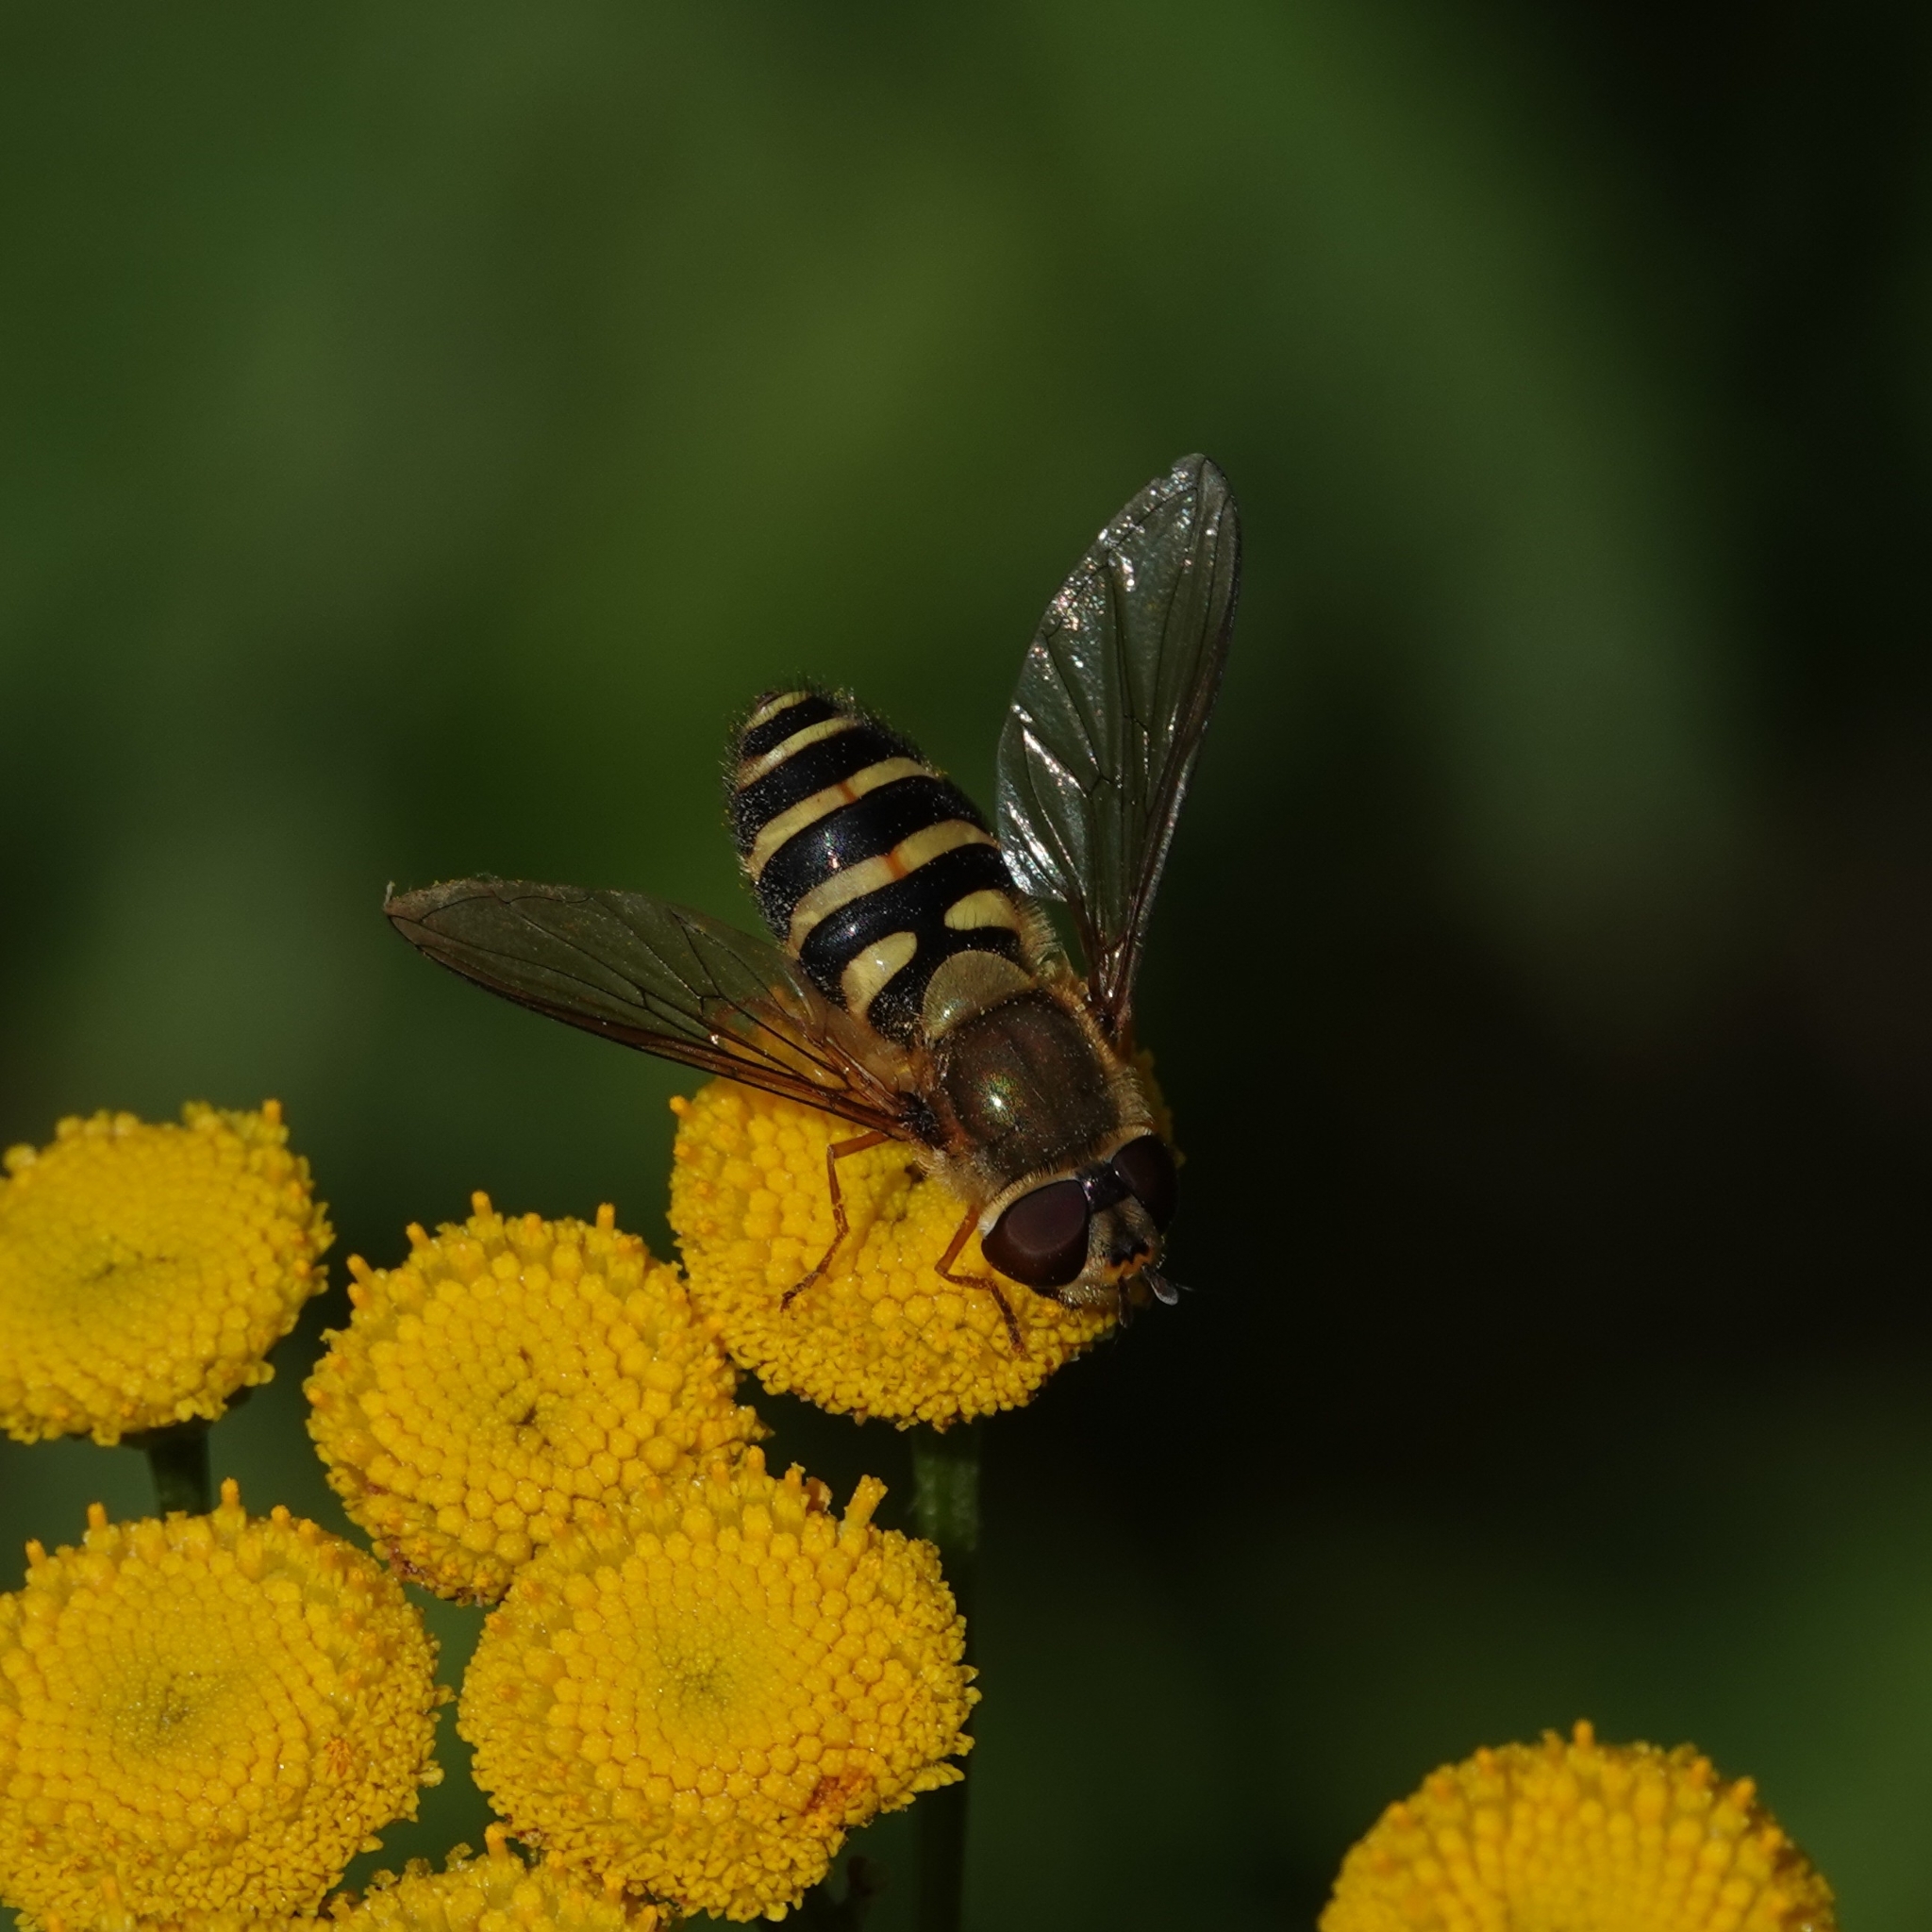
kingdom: Animalia
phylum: Arthropoda
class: Insecta
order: Diptera
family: Syrphidae
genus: Syrphus
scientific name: Syrphus torvus
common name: Hairy-eyed flower fly
